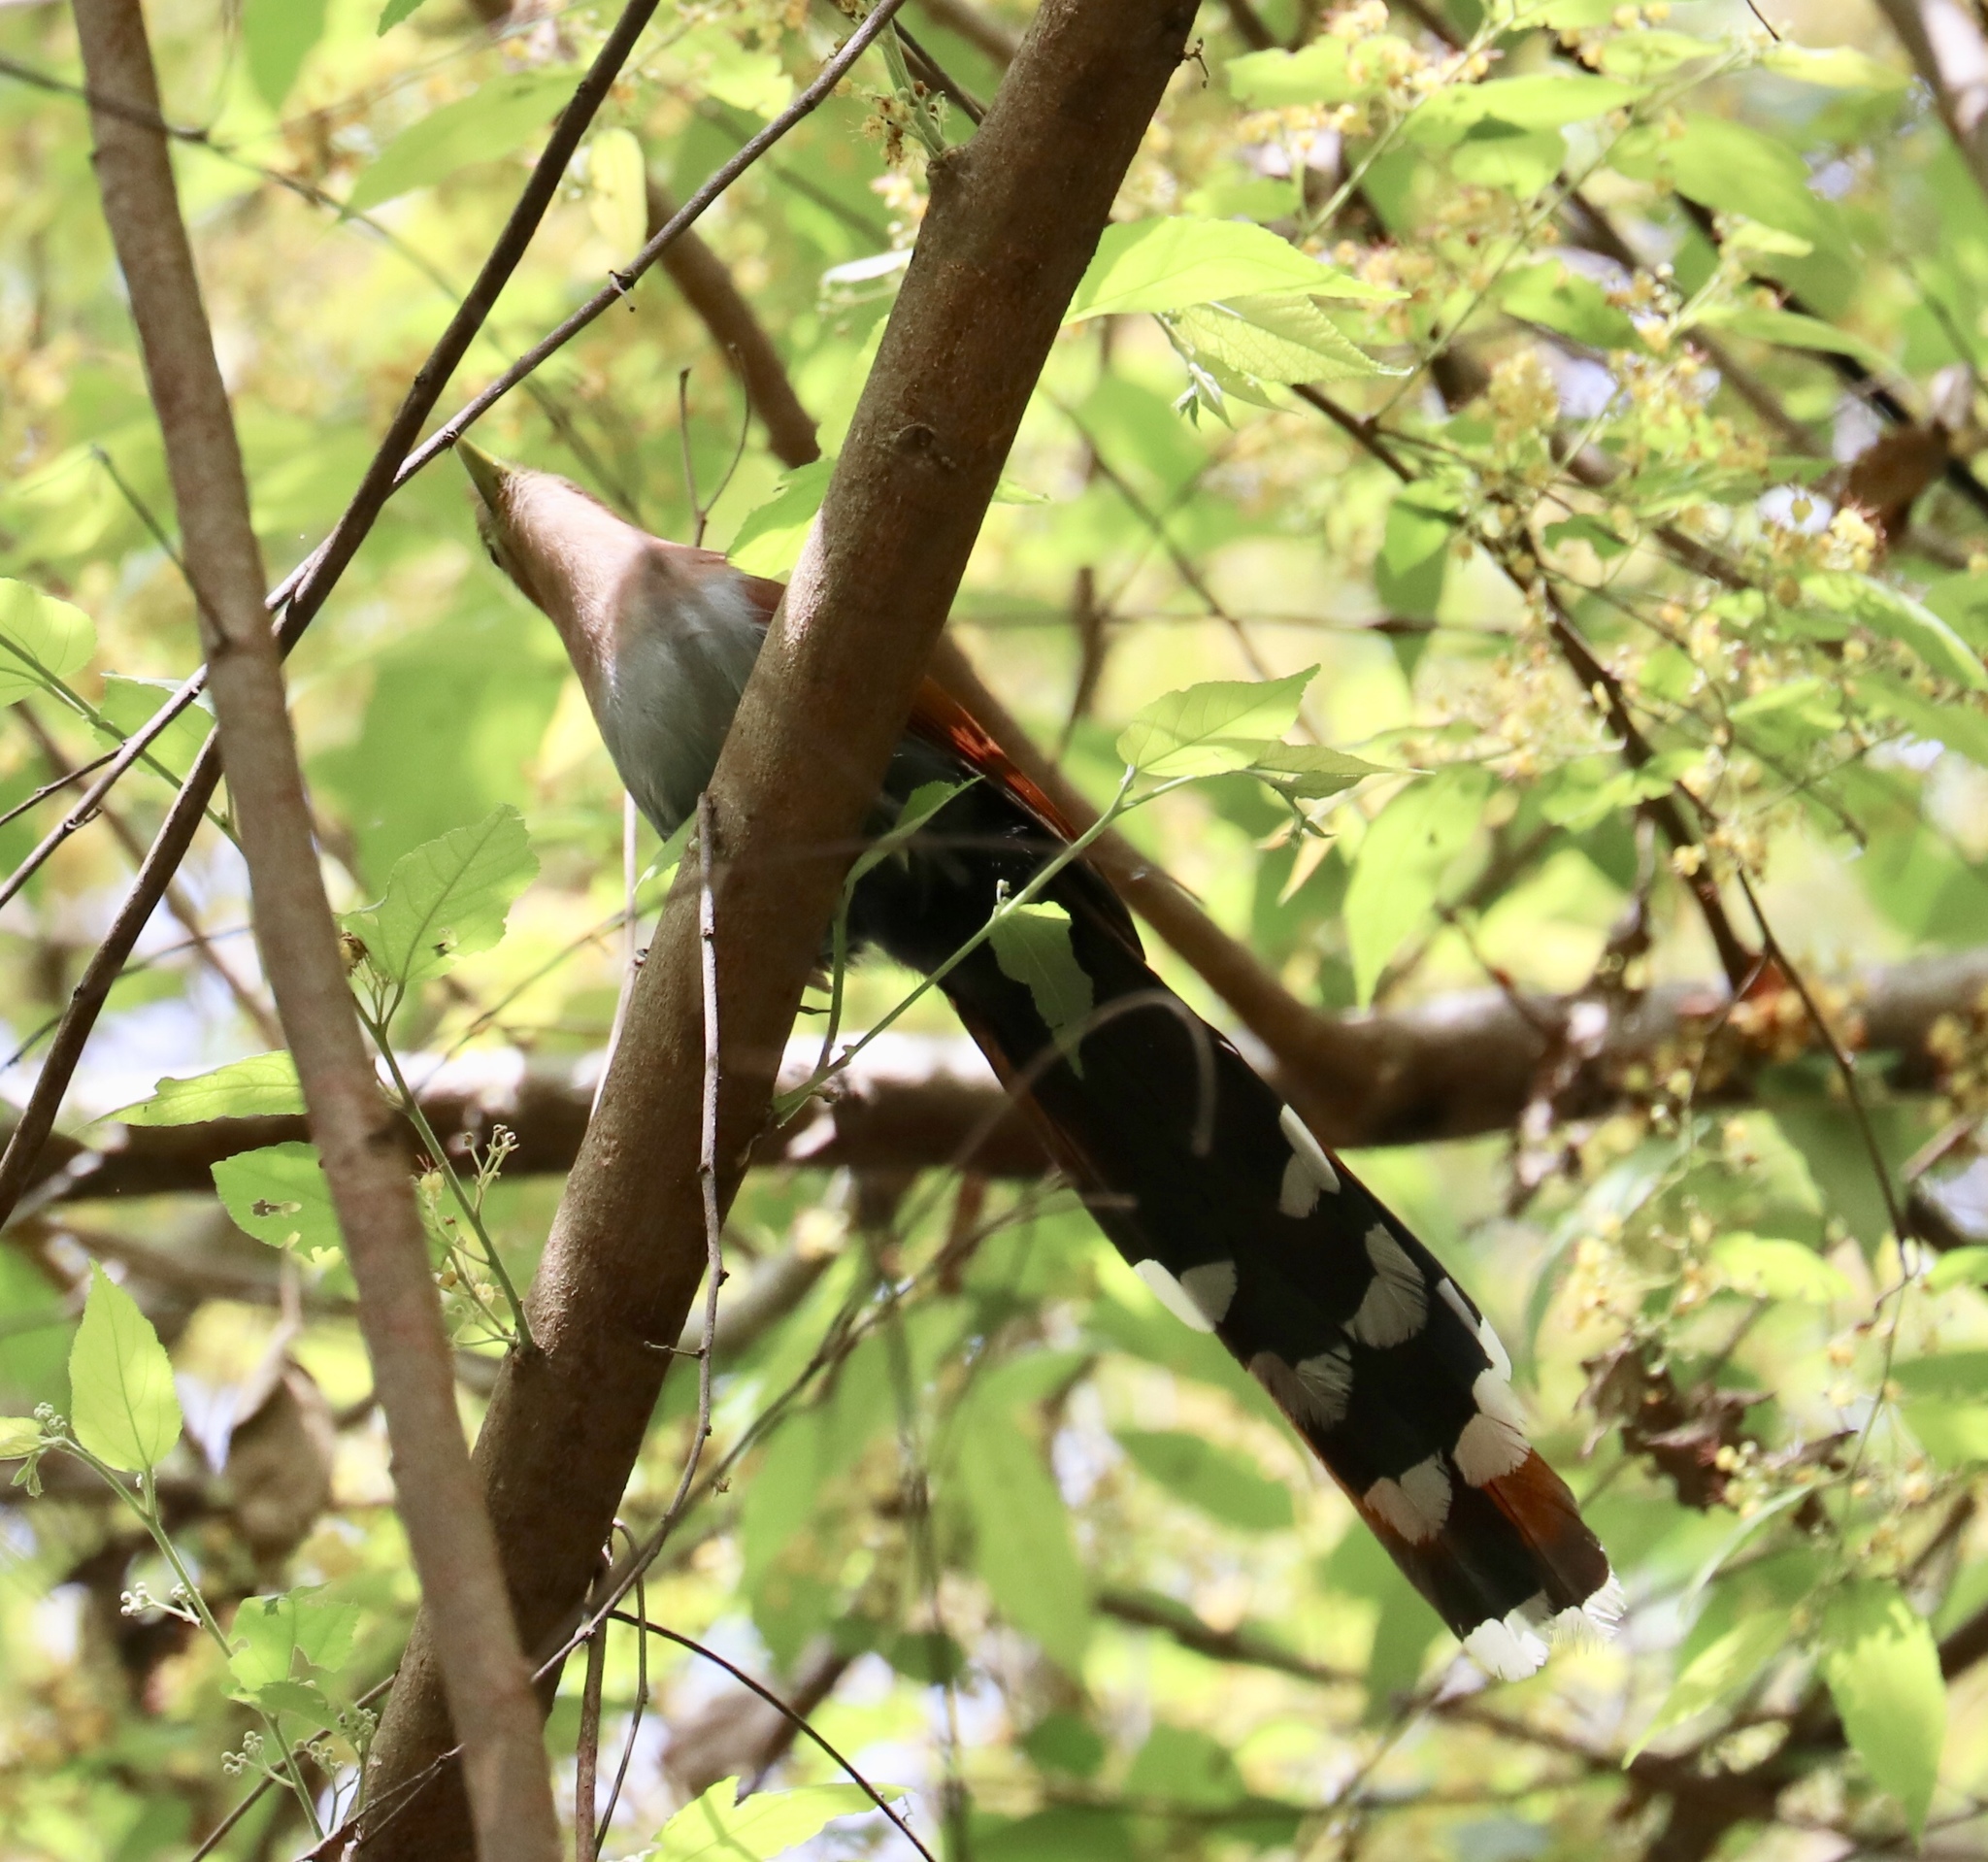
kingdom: Animalia
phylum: Chordata
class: Aves
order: Cuculiformes
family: Cuculidae
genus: Piaya
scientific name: Piaya cayana
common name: Squirrel cuckoo
